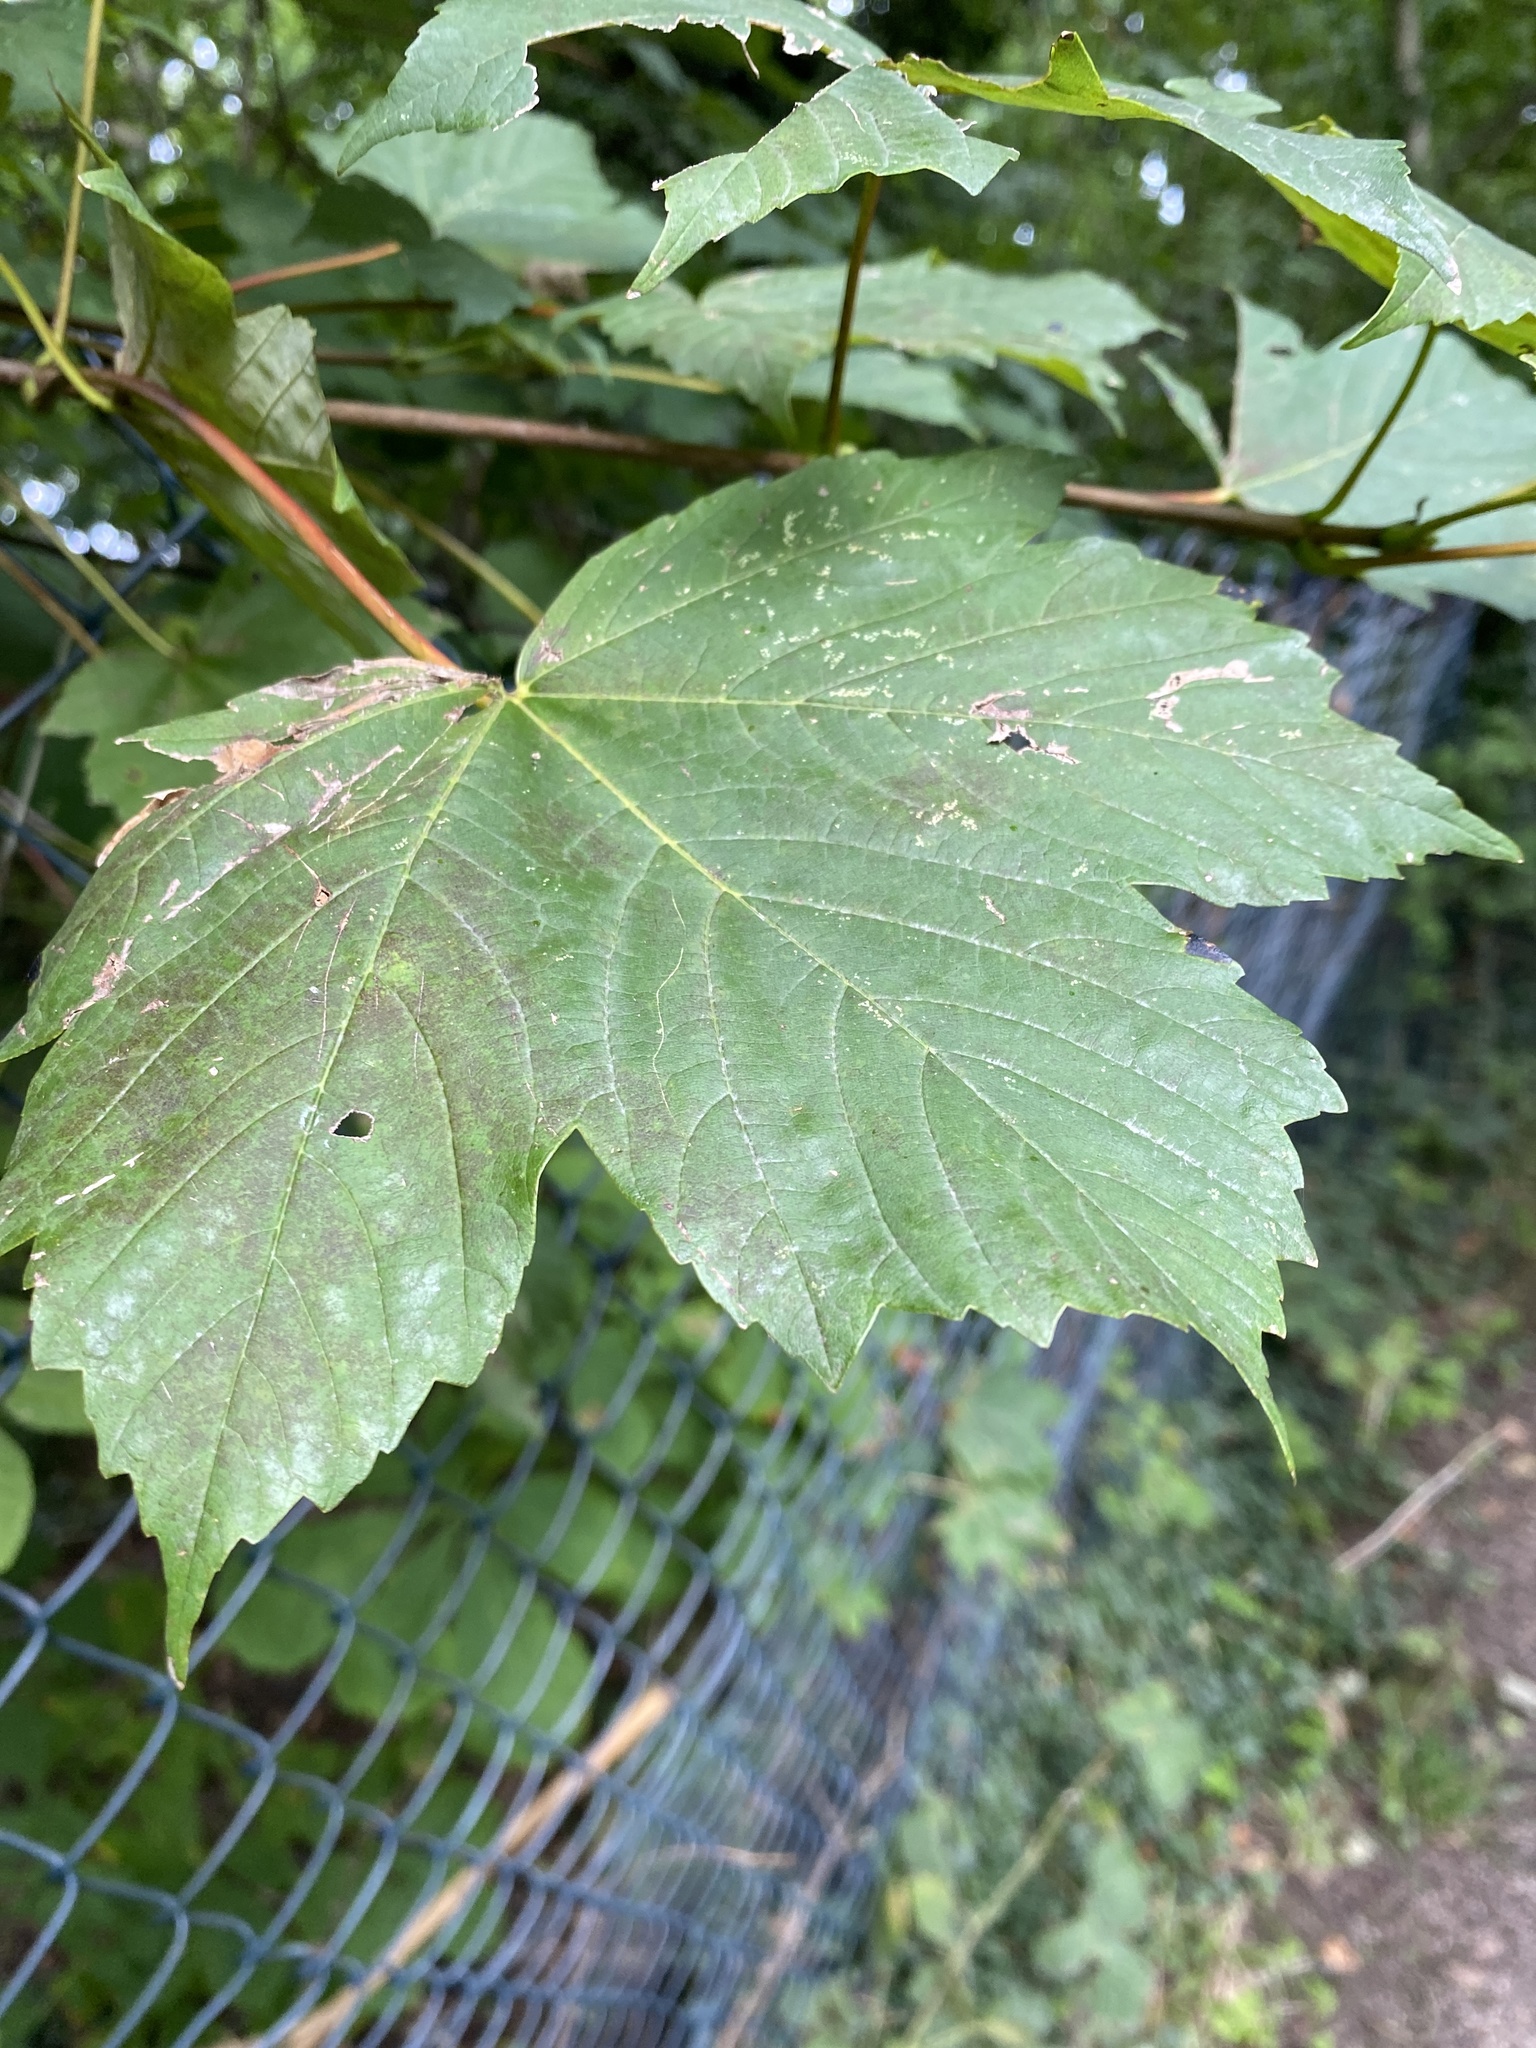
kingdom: Plantae
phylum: Tracheophyta
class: Magnoliopsida
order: Sapindales
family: Sapindaceae
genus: Acer
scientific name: Acer pseudoplatanus
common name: Sycamore
